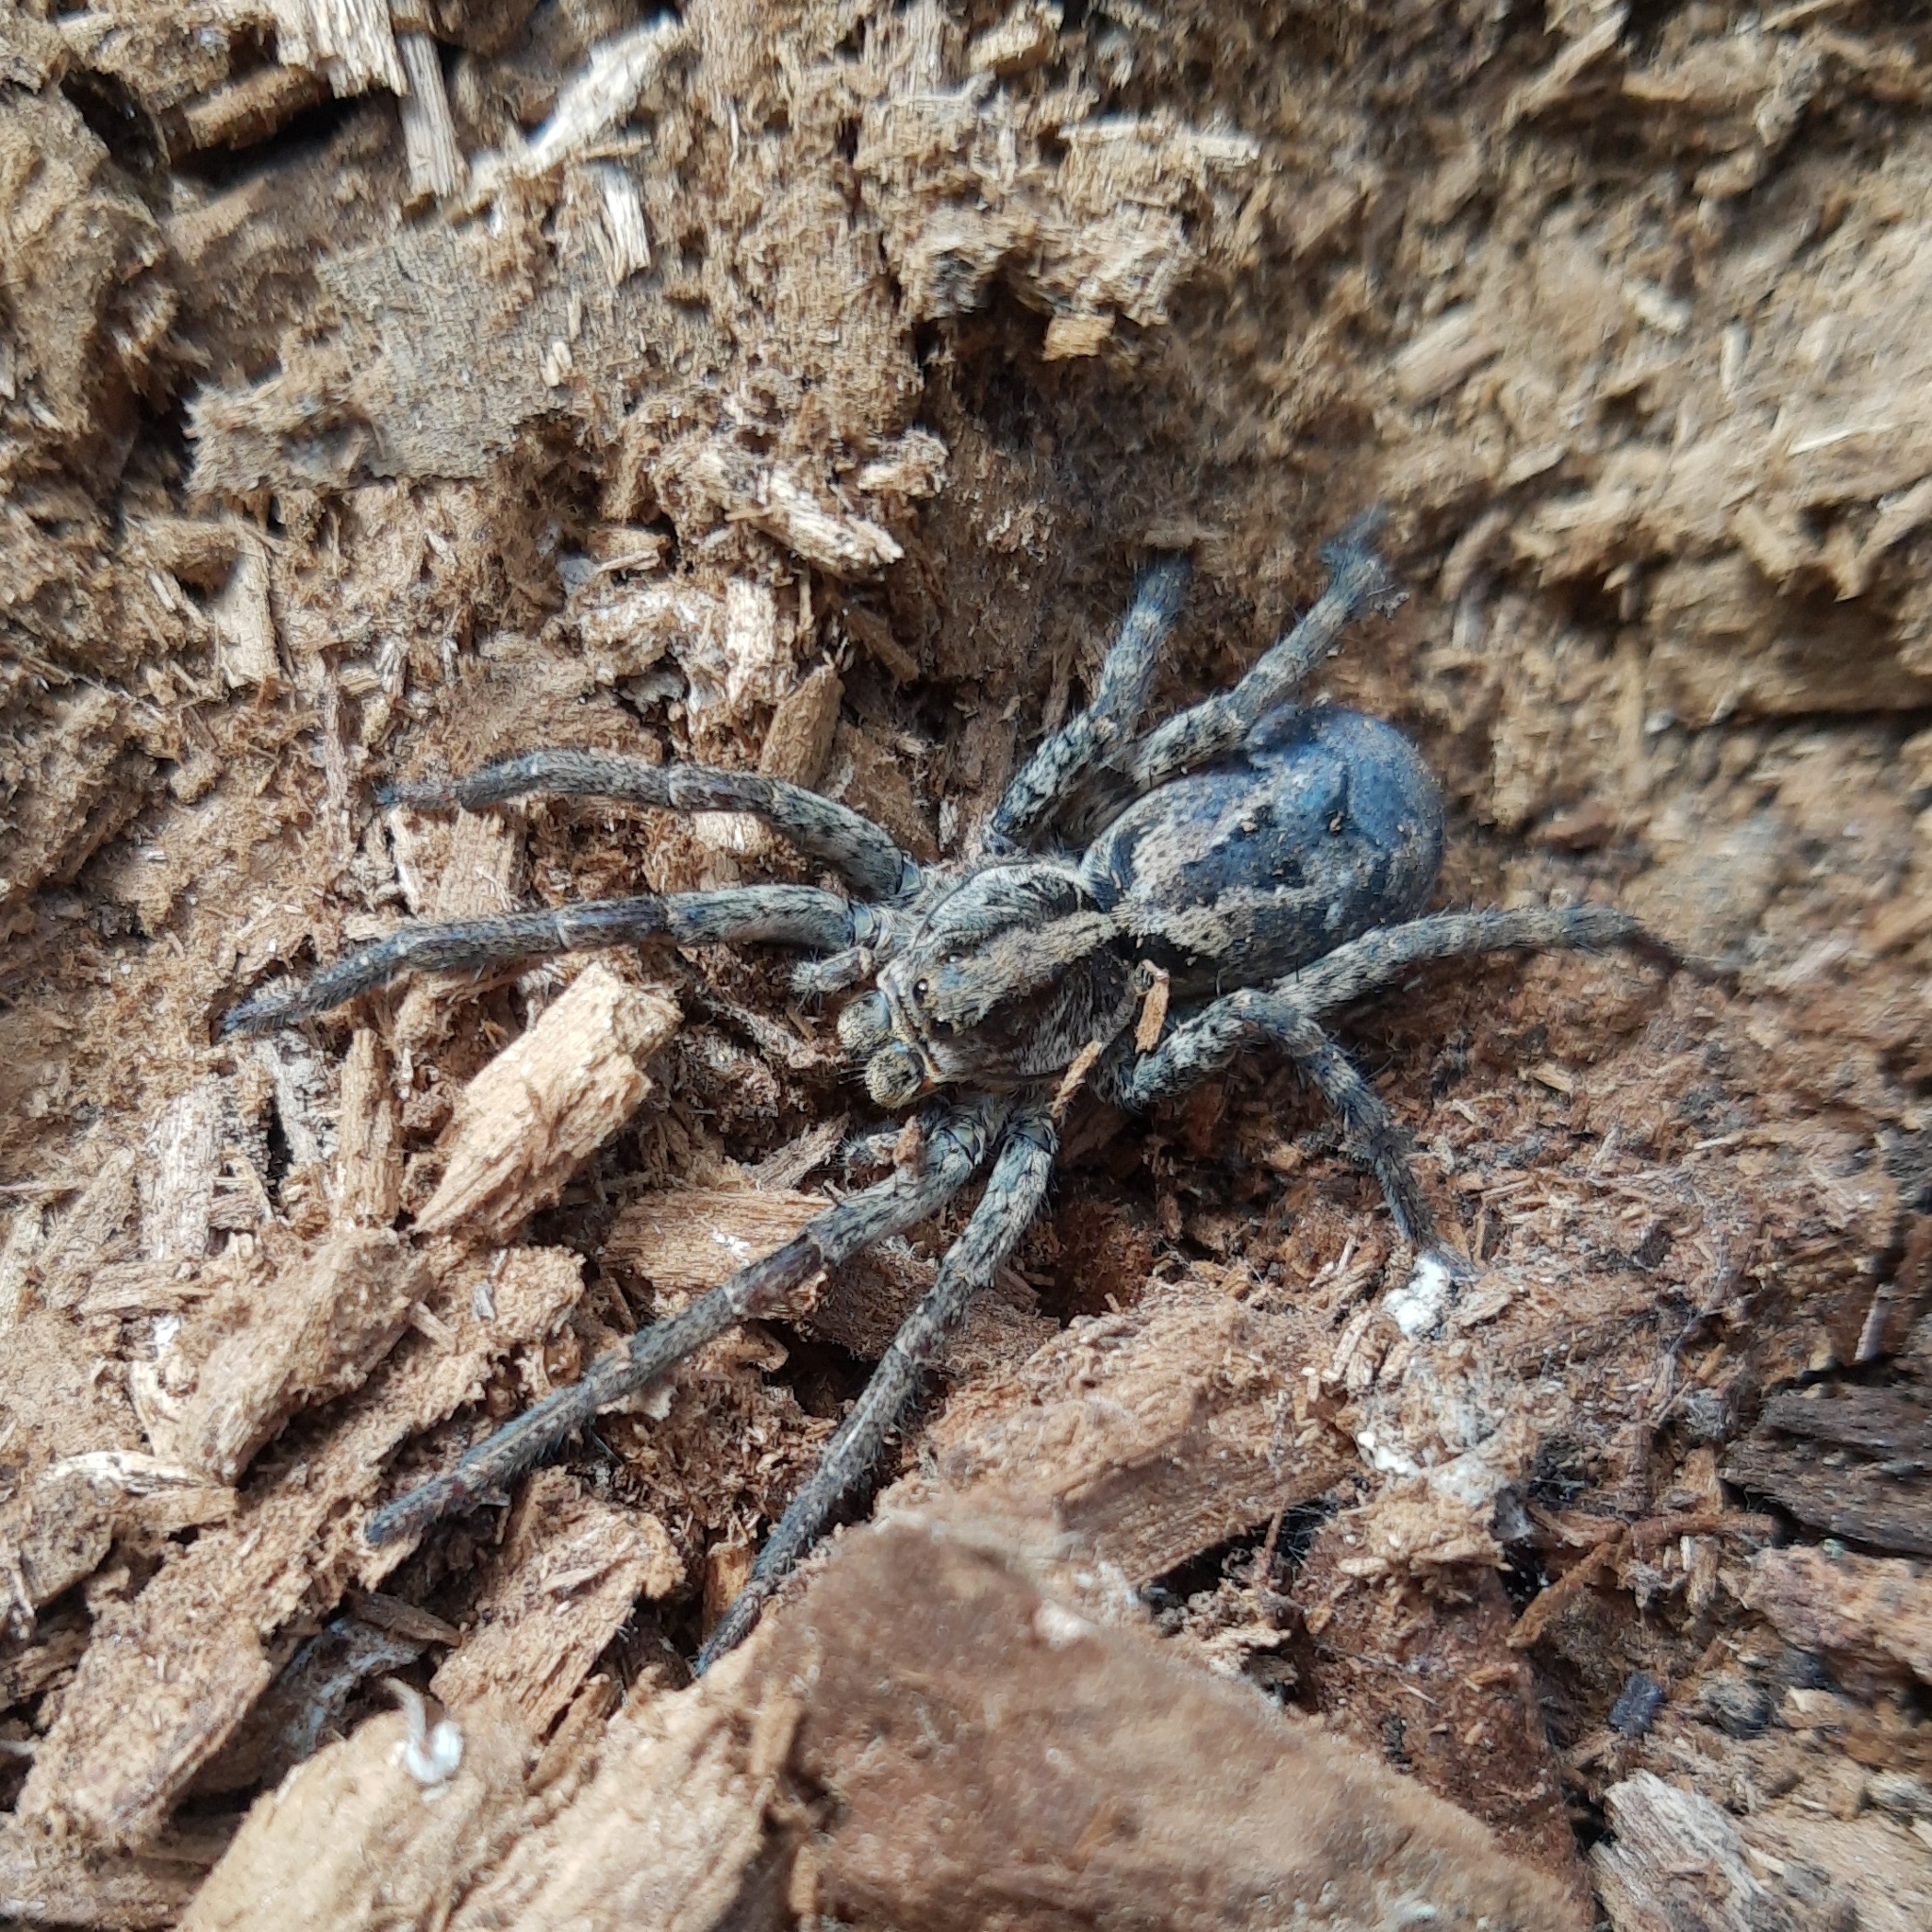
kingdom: Animalia
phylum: Arthropoda
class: Arachnida
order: Araneae
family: Lycosidae
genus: Schizocosa
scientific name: Schizocosa malitiosa
